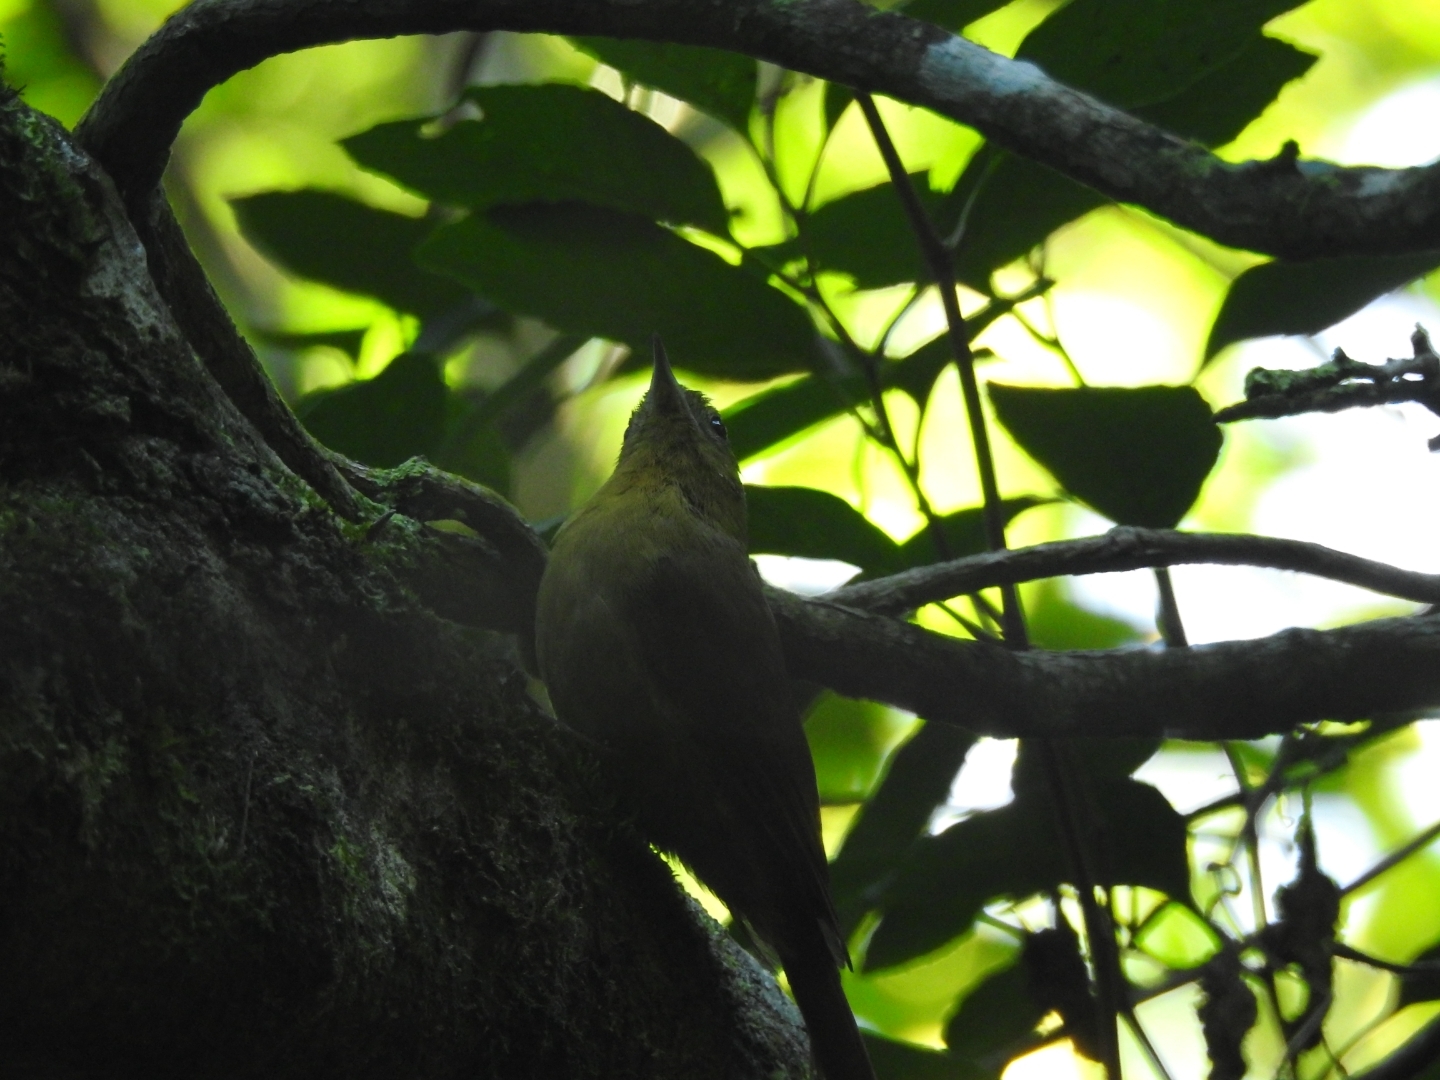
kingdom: Animalia
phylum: Chordata
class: Aves
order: Passeriformes
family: Furnariidae
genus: Sittasomus
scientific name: Sittasomus griseicapillus
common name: Olivaceous woodcreeper
